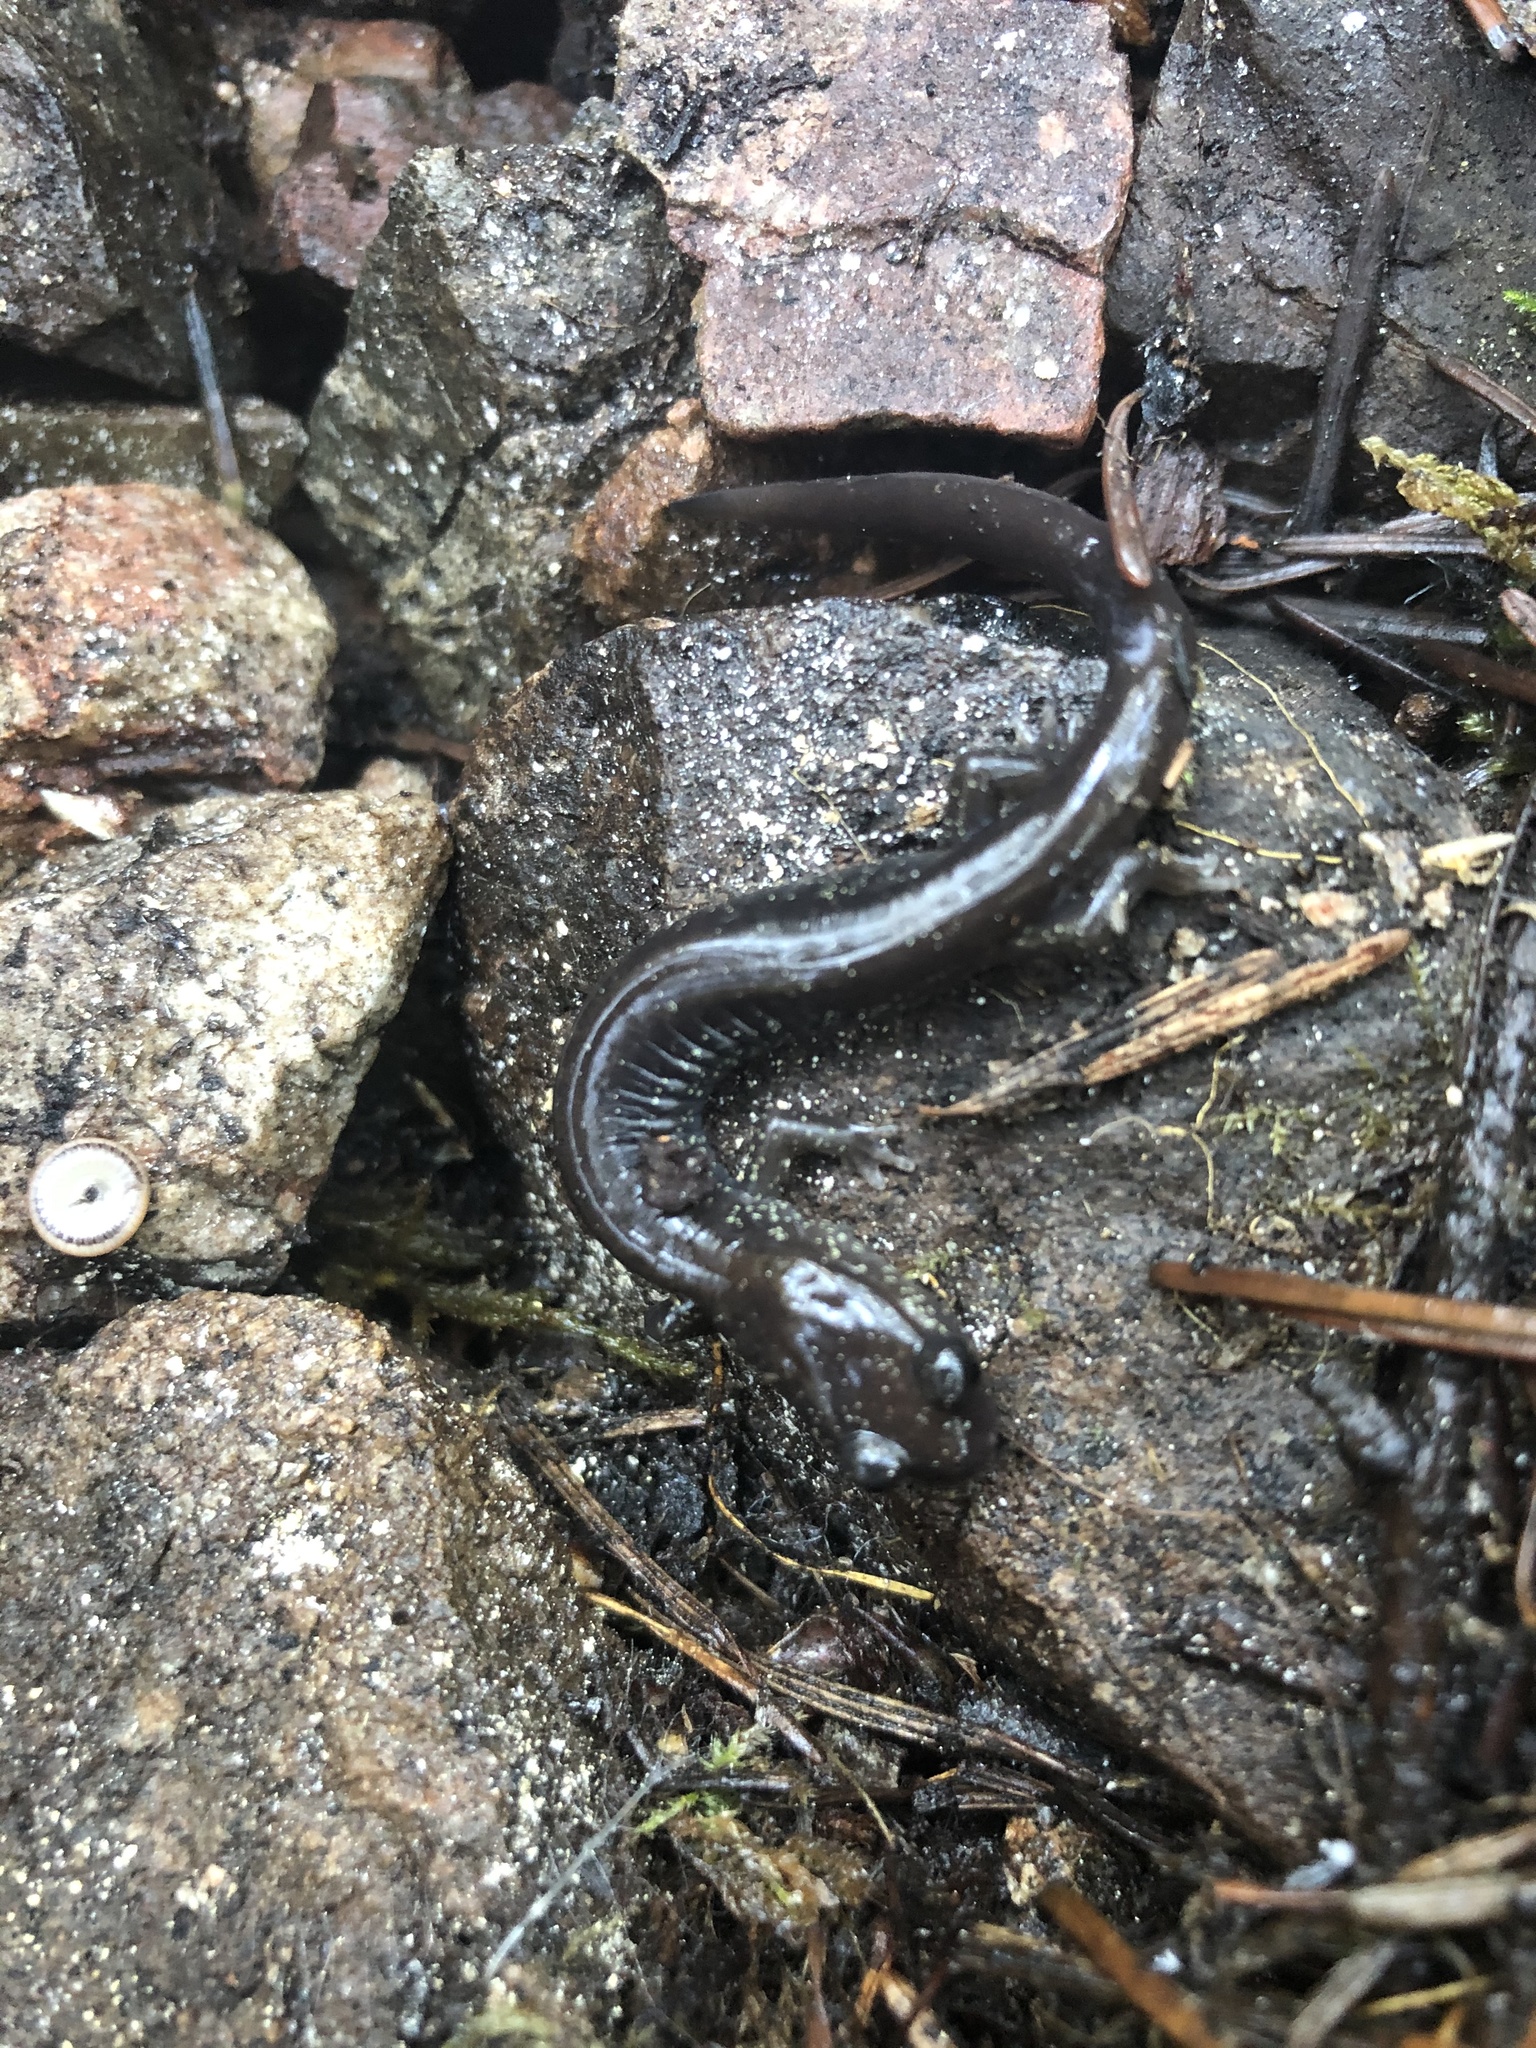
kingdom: Animalia
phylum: Chordata
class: Amphibia
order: Caudata
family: Plethodontidae
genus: Plethodon
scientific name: Plethodon stormi
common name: Siskiyou mountains salamander
